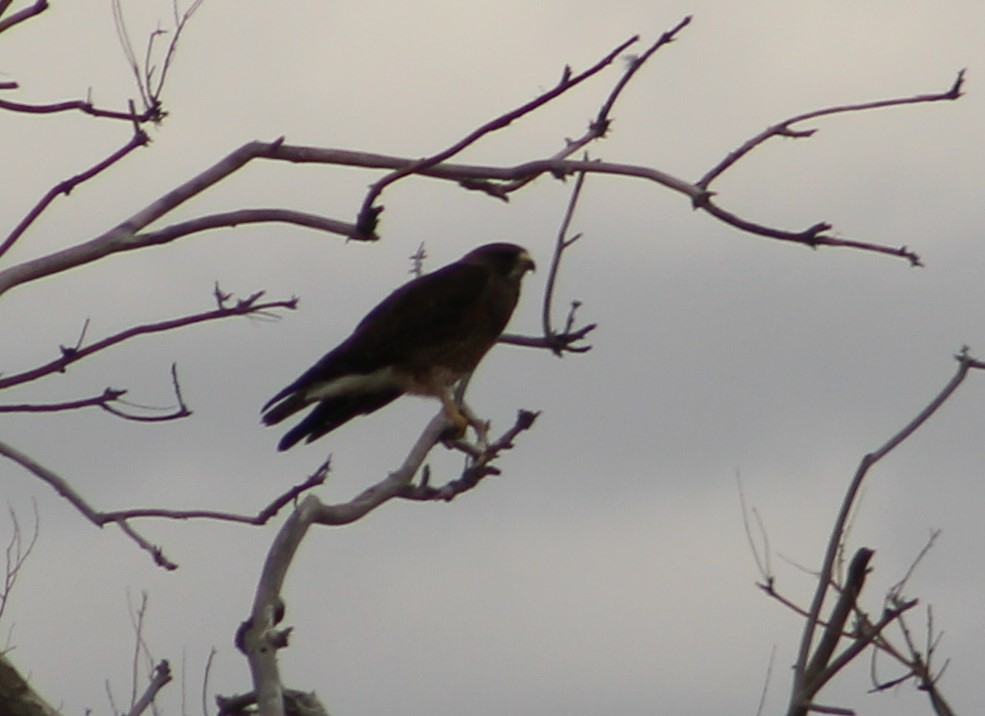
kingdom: Animalia
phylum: Chordata
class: Aves
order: Accipitriformes
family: Accipitridae
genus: Buteo
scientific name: Buteo swainsoni
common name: Swainson's hawk
